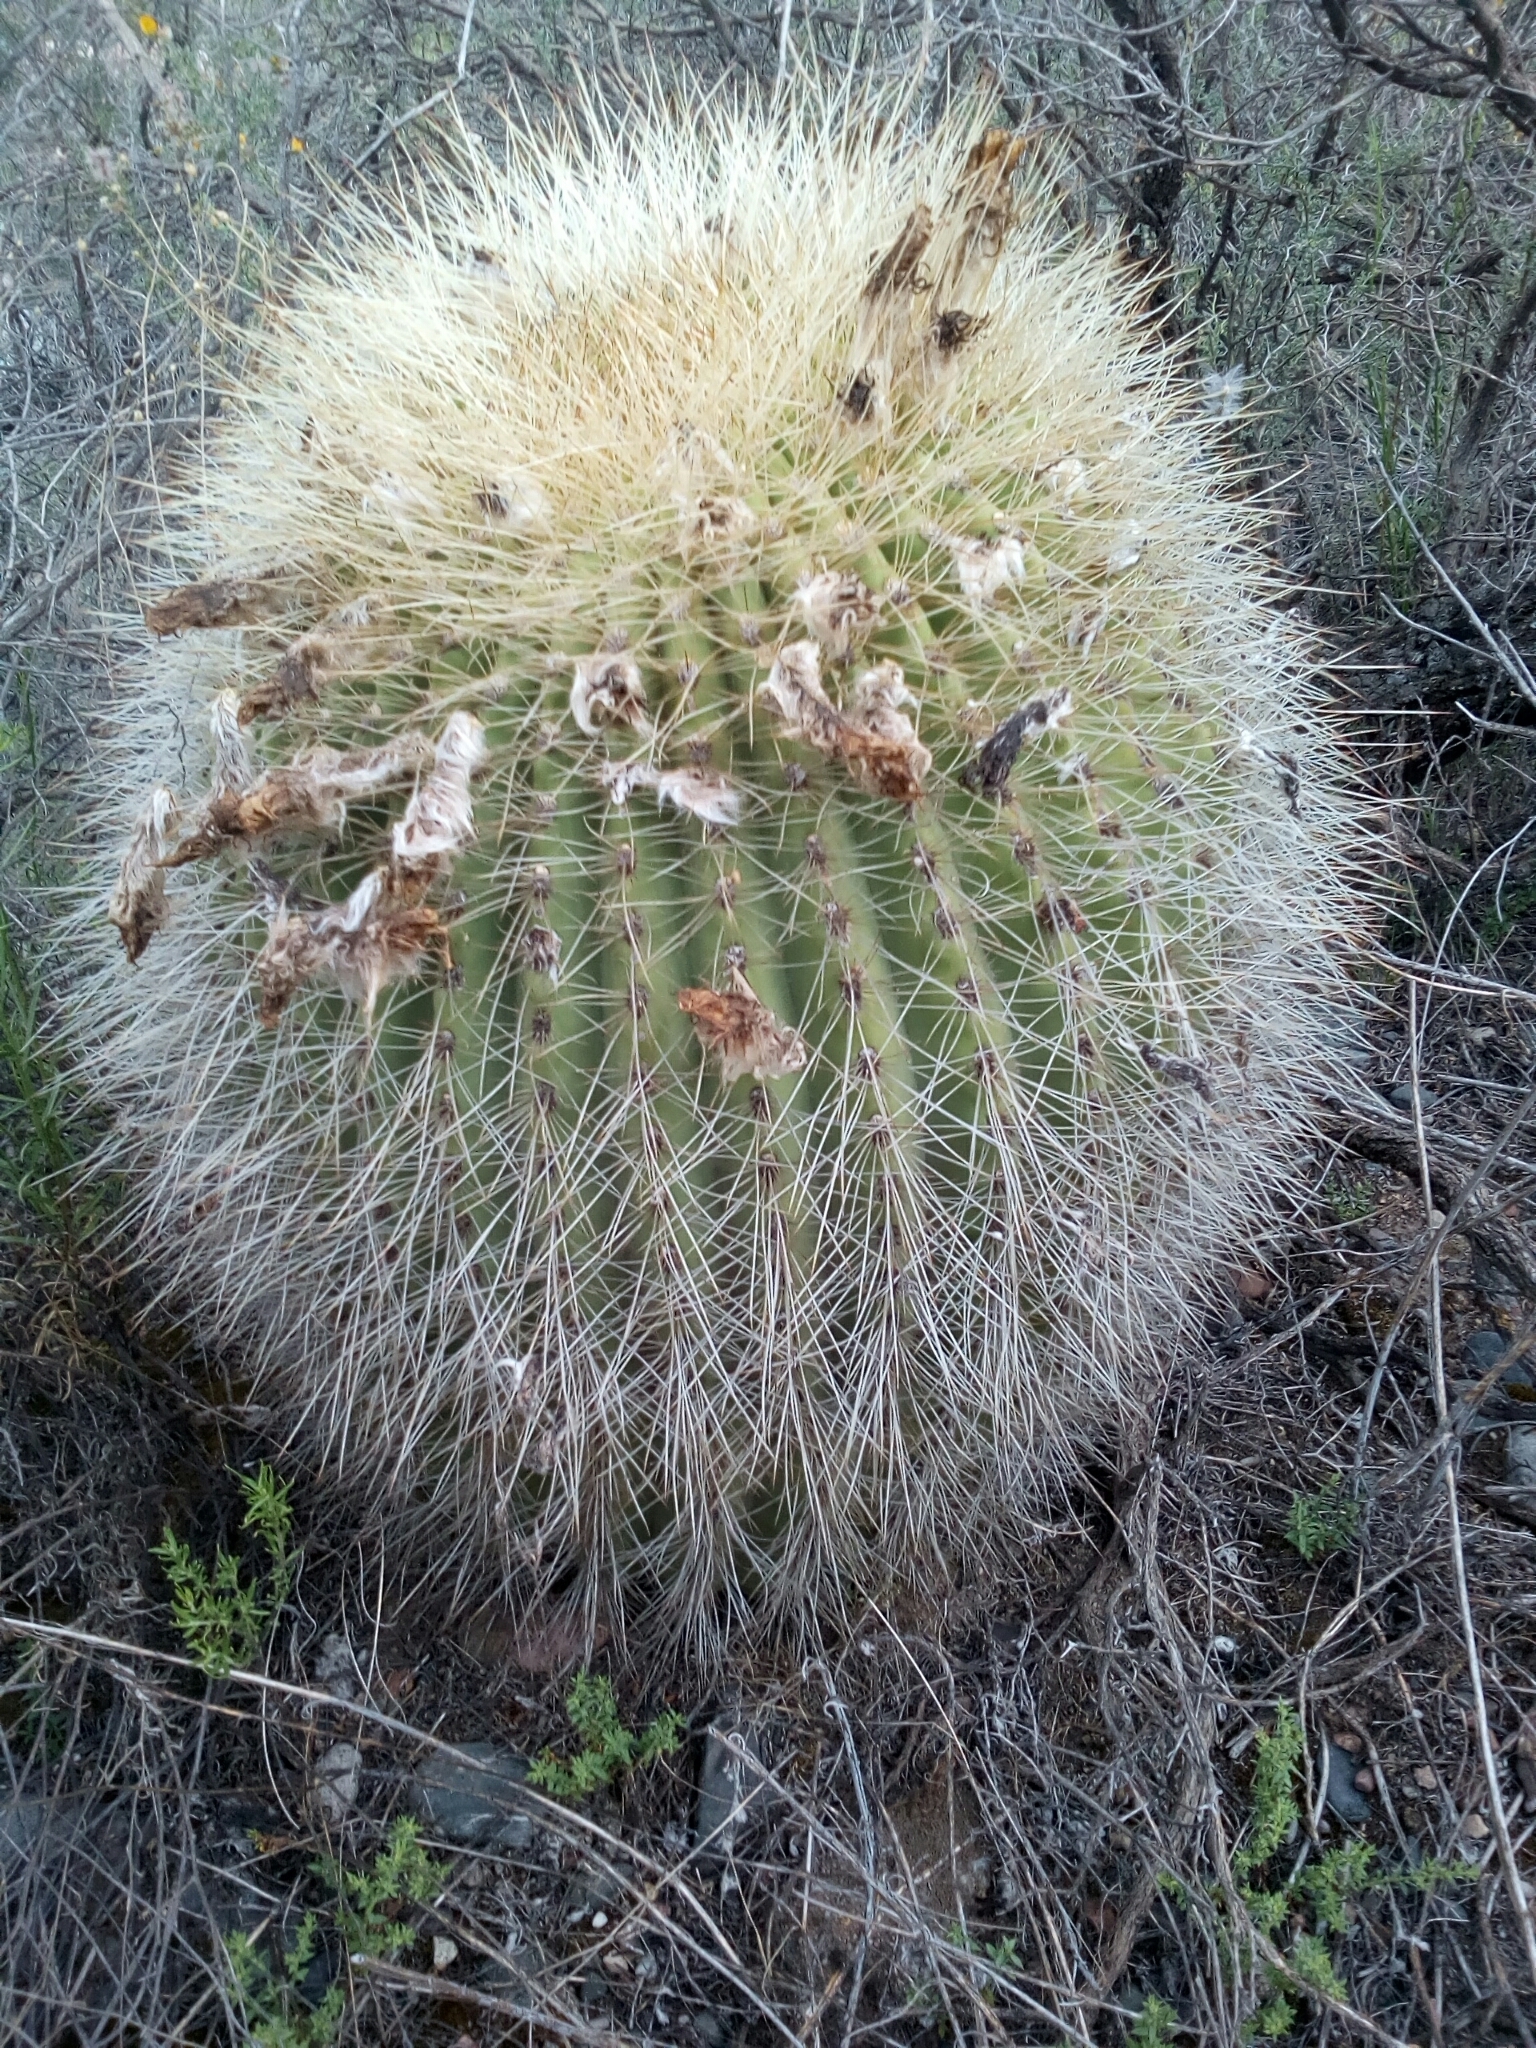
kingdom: Plantae
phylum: Tracheophyta
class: Magnoliopsida
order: Caryophyllales
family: Cactaceae
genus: Soehrensia
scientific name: Soehrensia formosa
